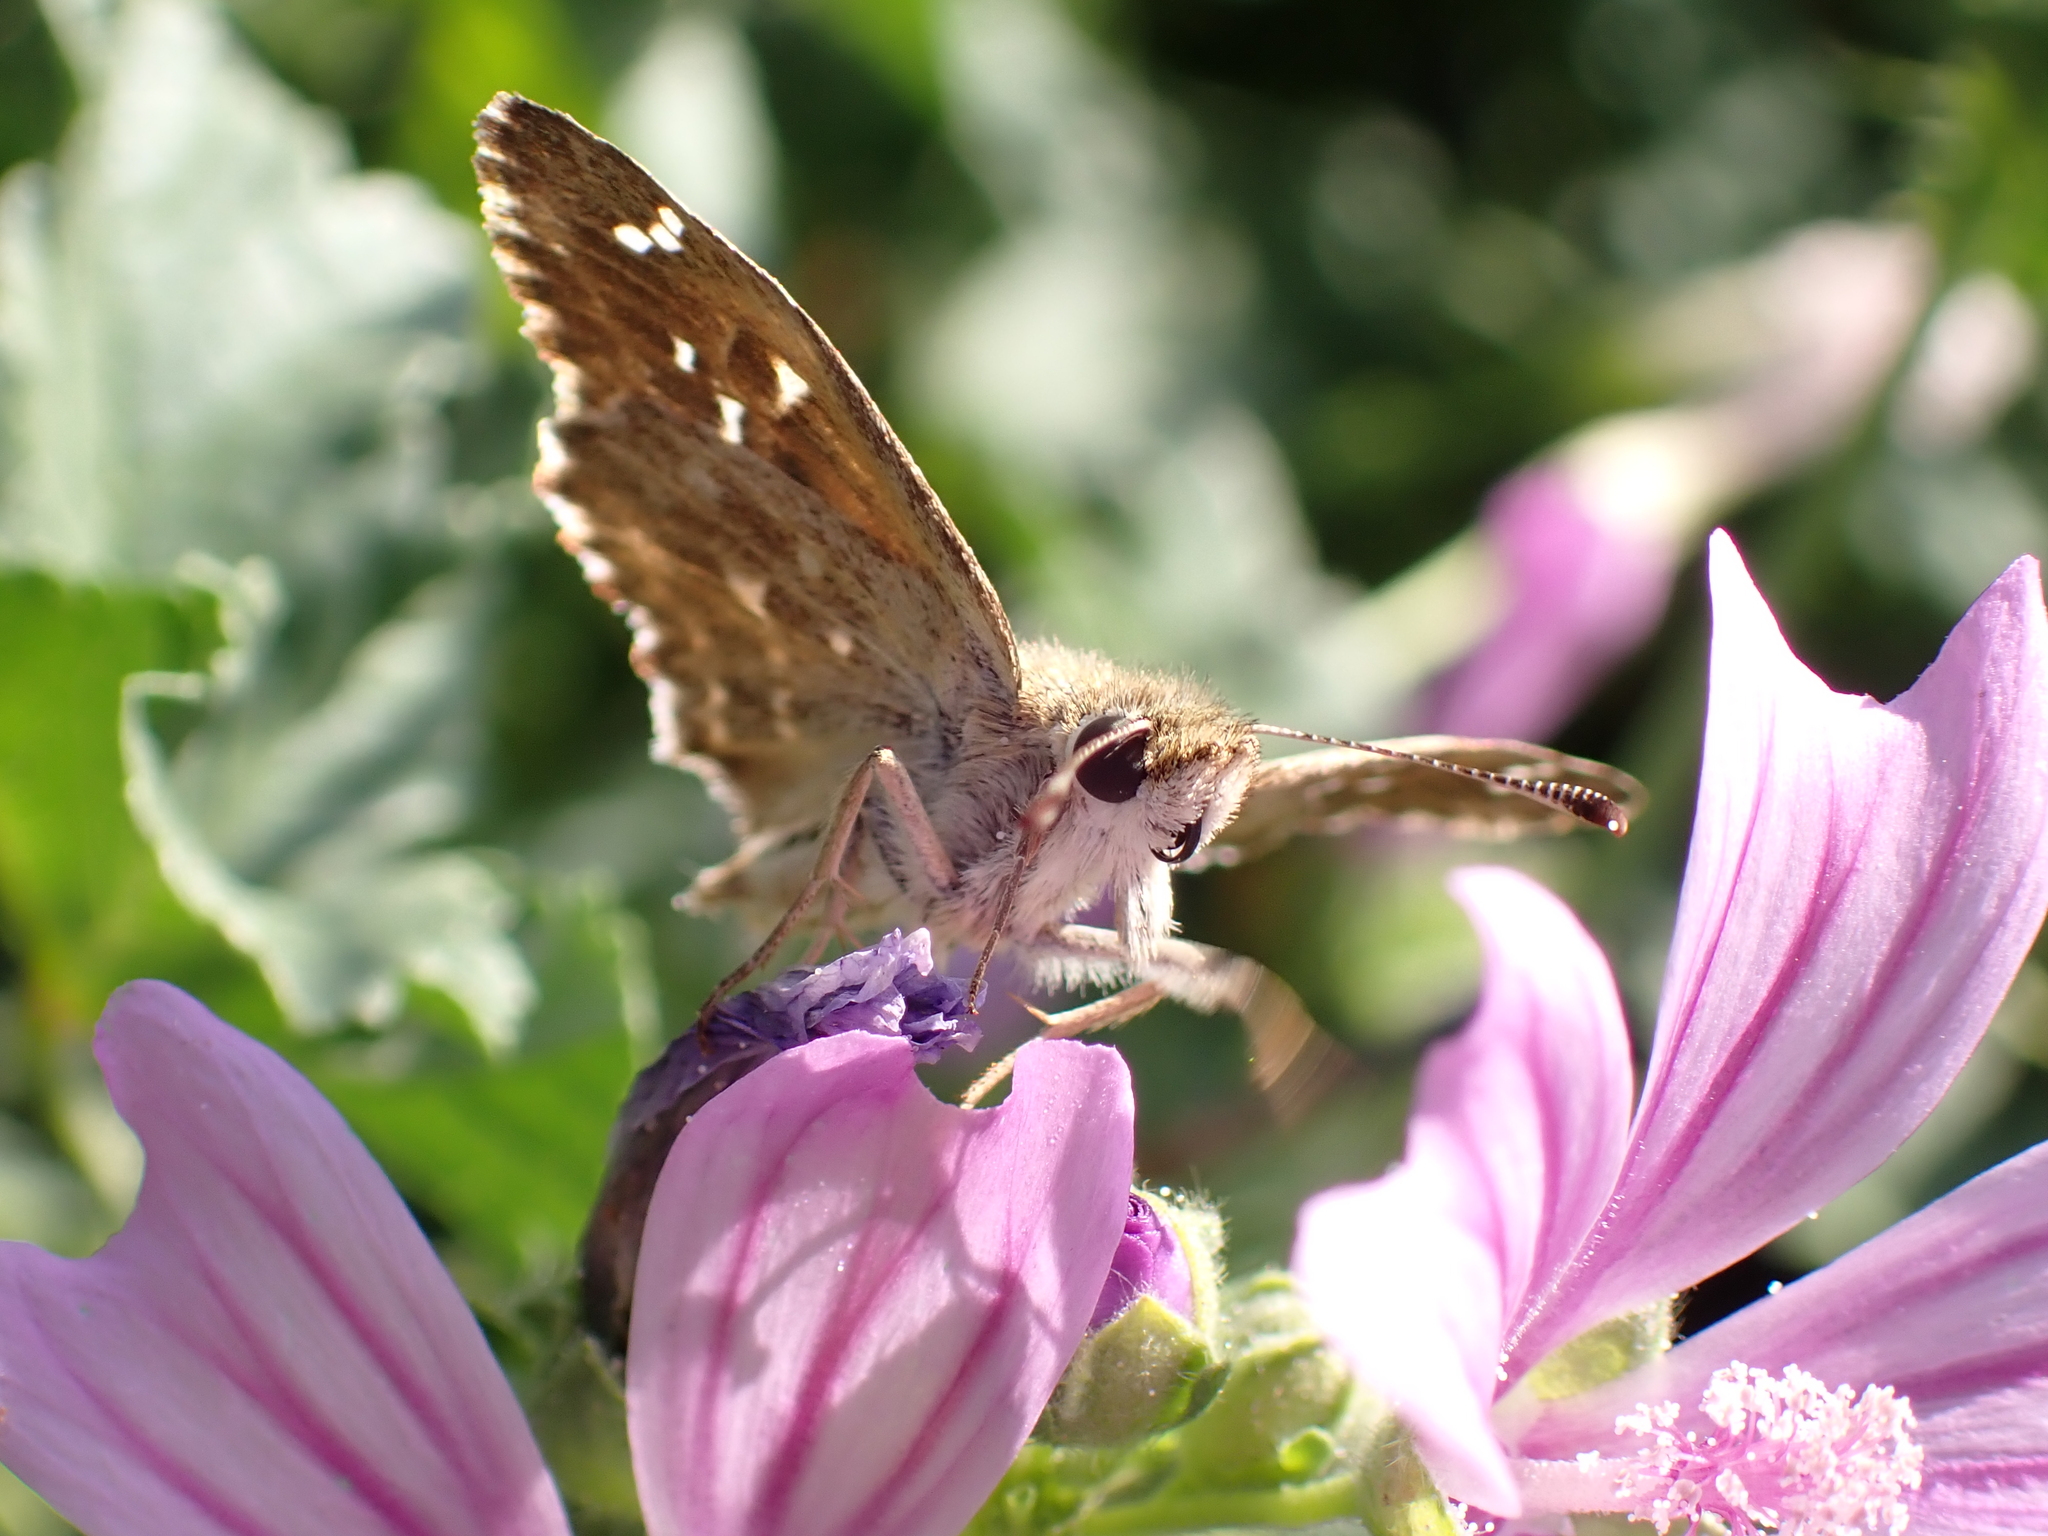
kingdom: Animalia
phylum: Arthropoda
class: Insecta
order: Lepidoptera
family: Hesperiidae
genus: Carcharodus
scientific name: Carcharodus alceae
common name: Mallow skipper
